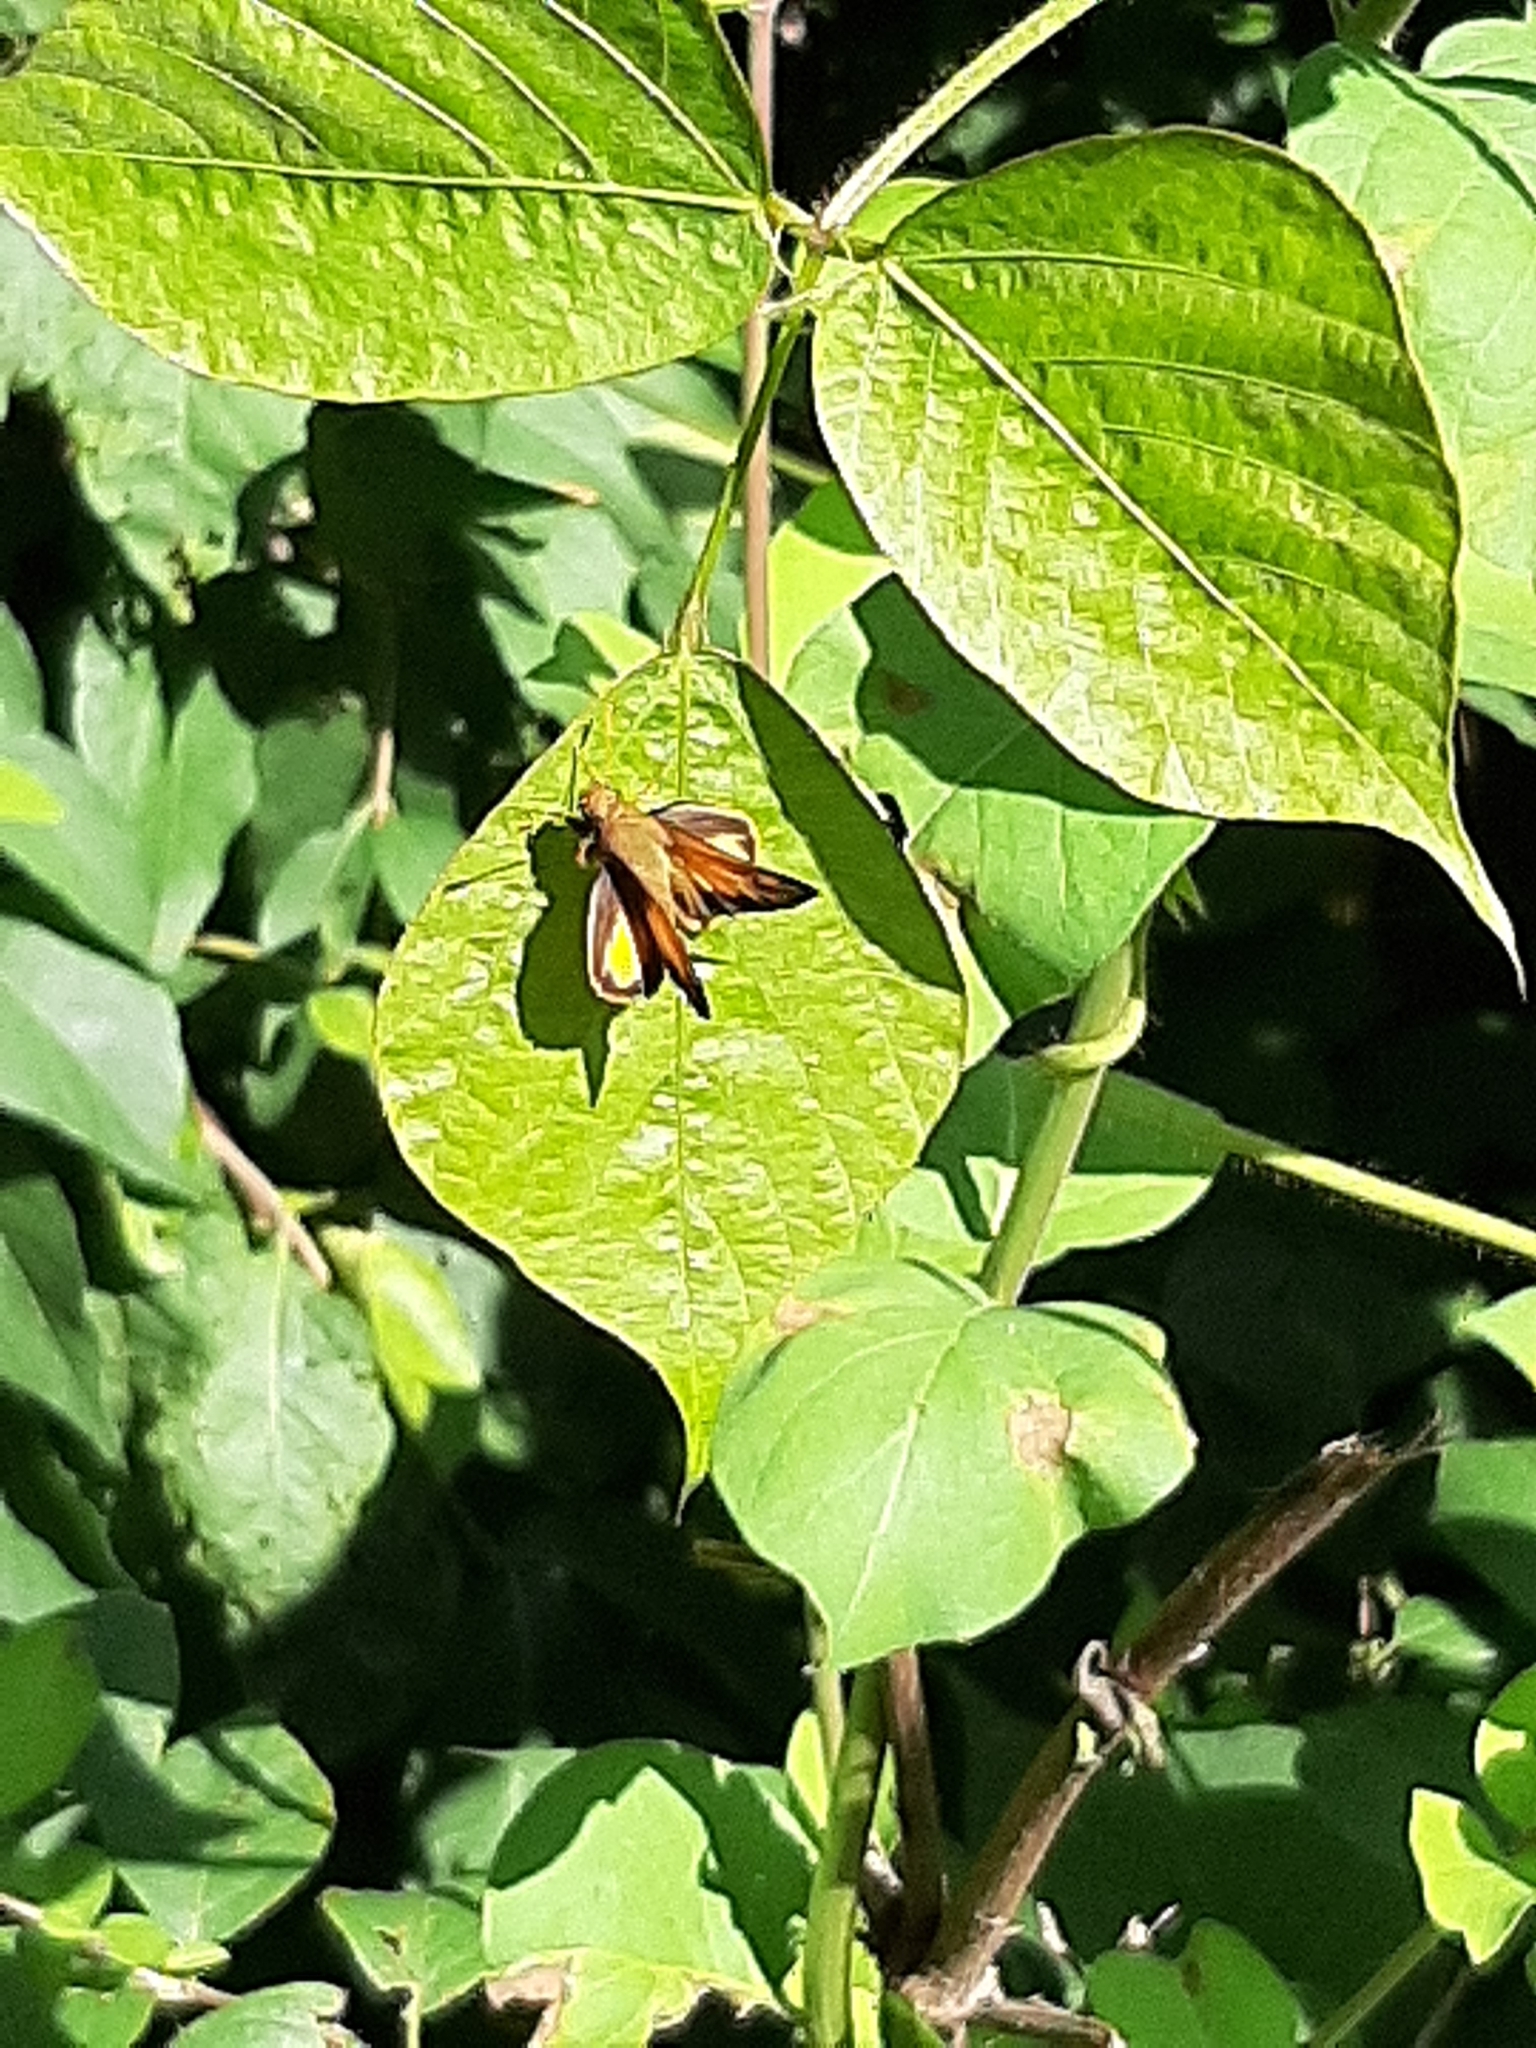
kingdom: Animalia
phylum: Arthropoda
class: Insecta
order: Lepidoptera
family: Hesperiidae
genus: Lon
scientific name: Lon zabulon
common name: Zabulon skipper
